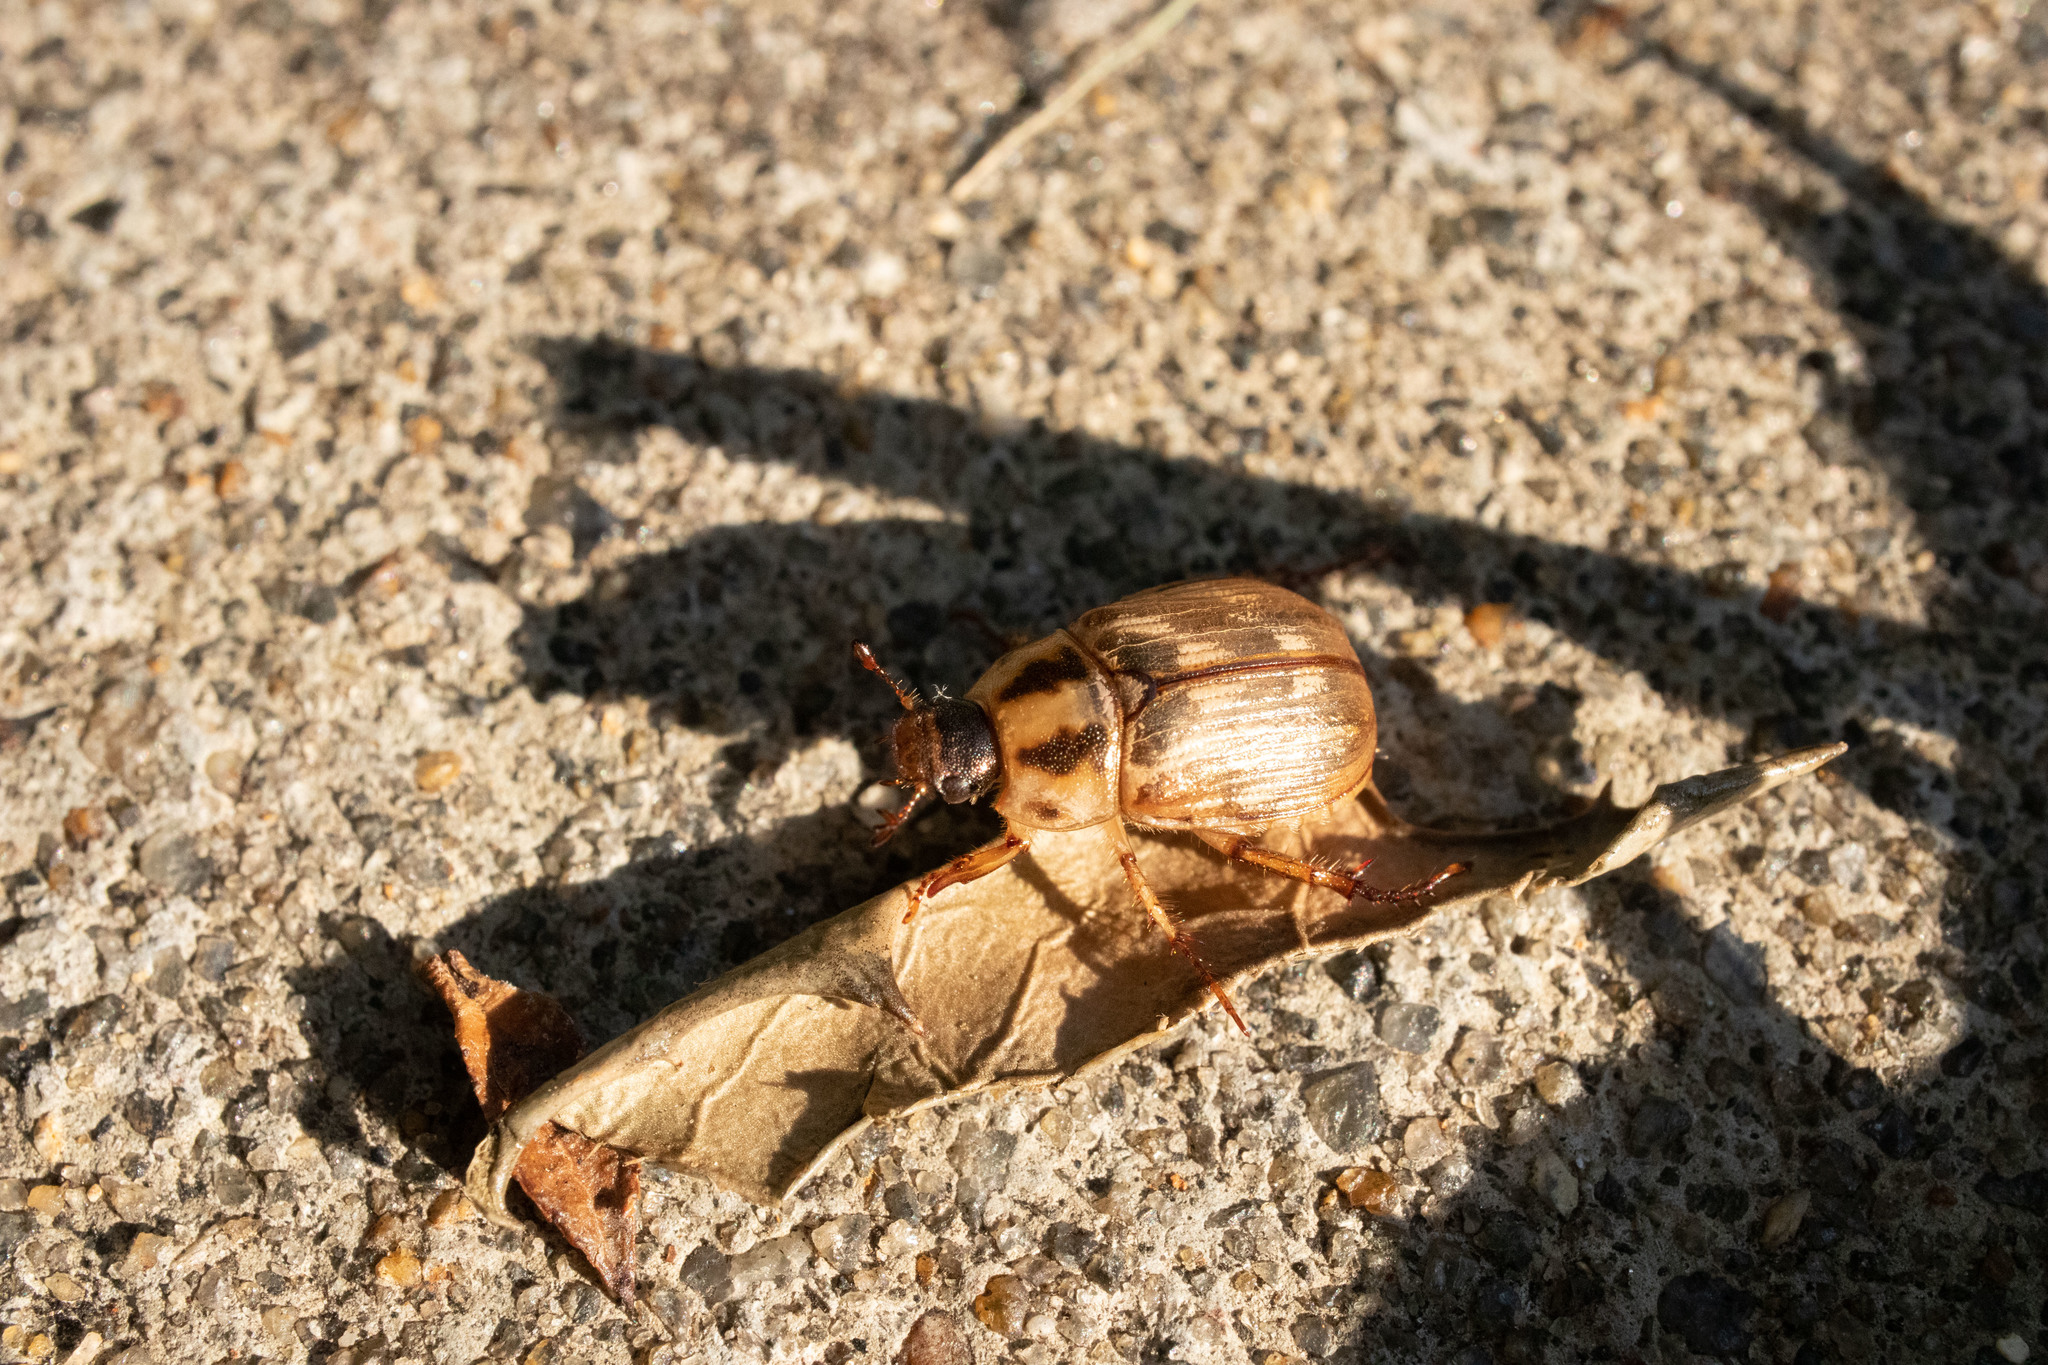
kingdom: Animalia
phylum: Arthropoda
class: Insecta
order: Coleoptera
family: Scarabaeidae
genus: Exomala
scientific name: Exomala orientalis
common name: Oriental beetle
